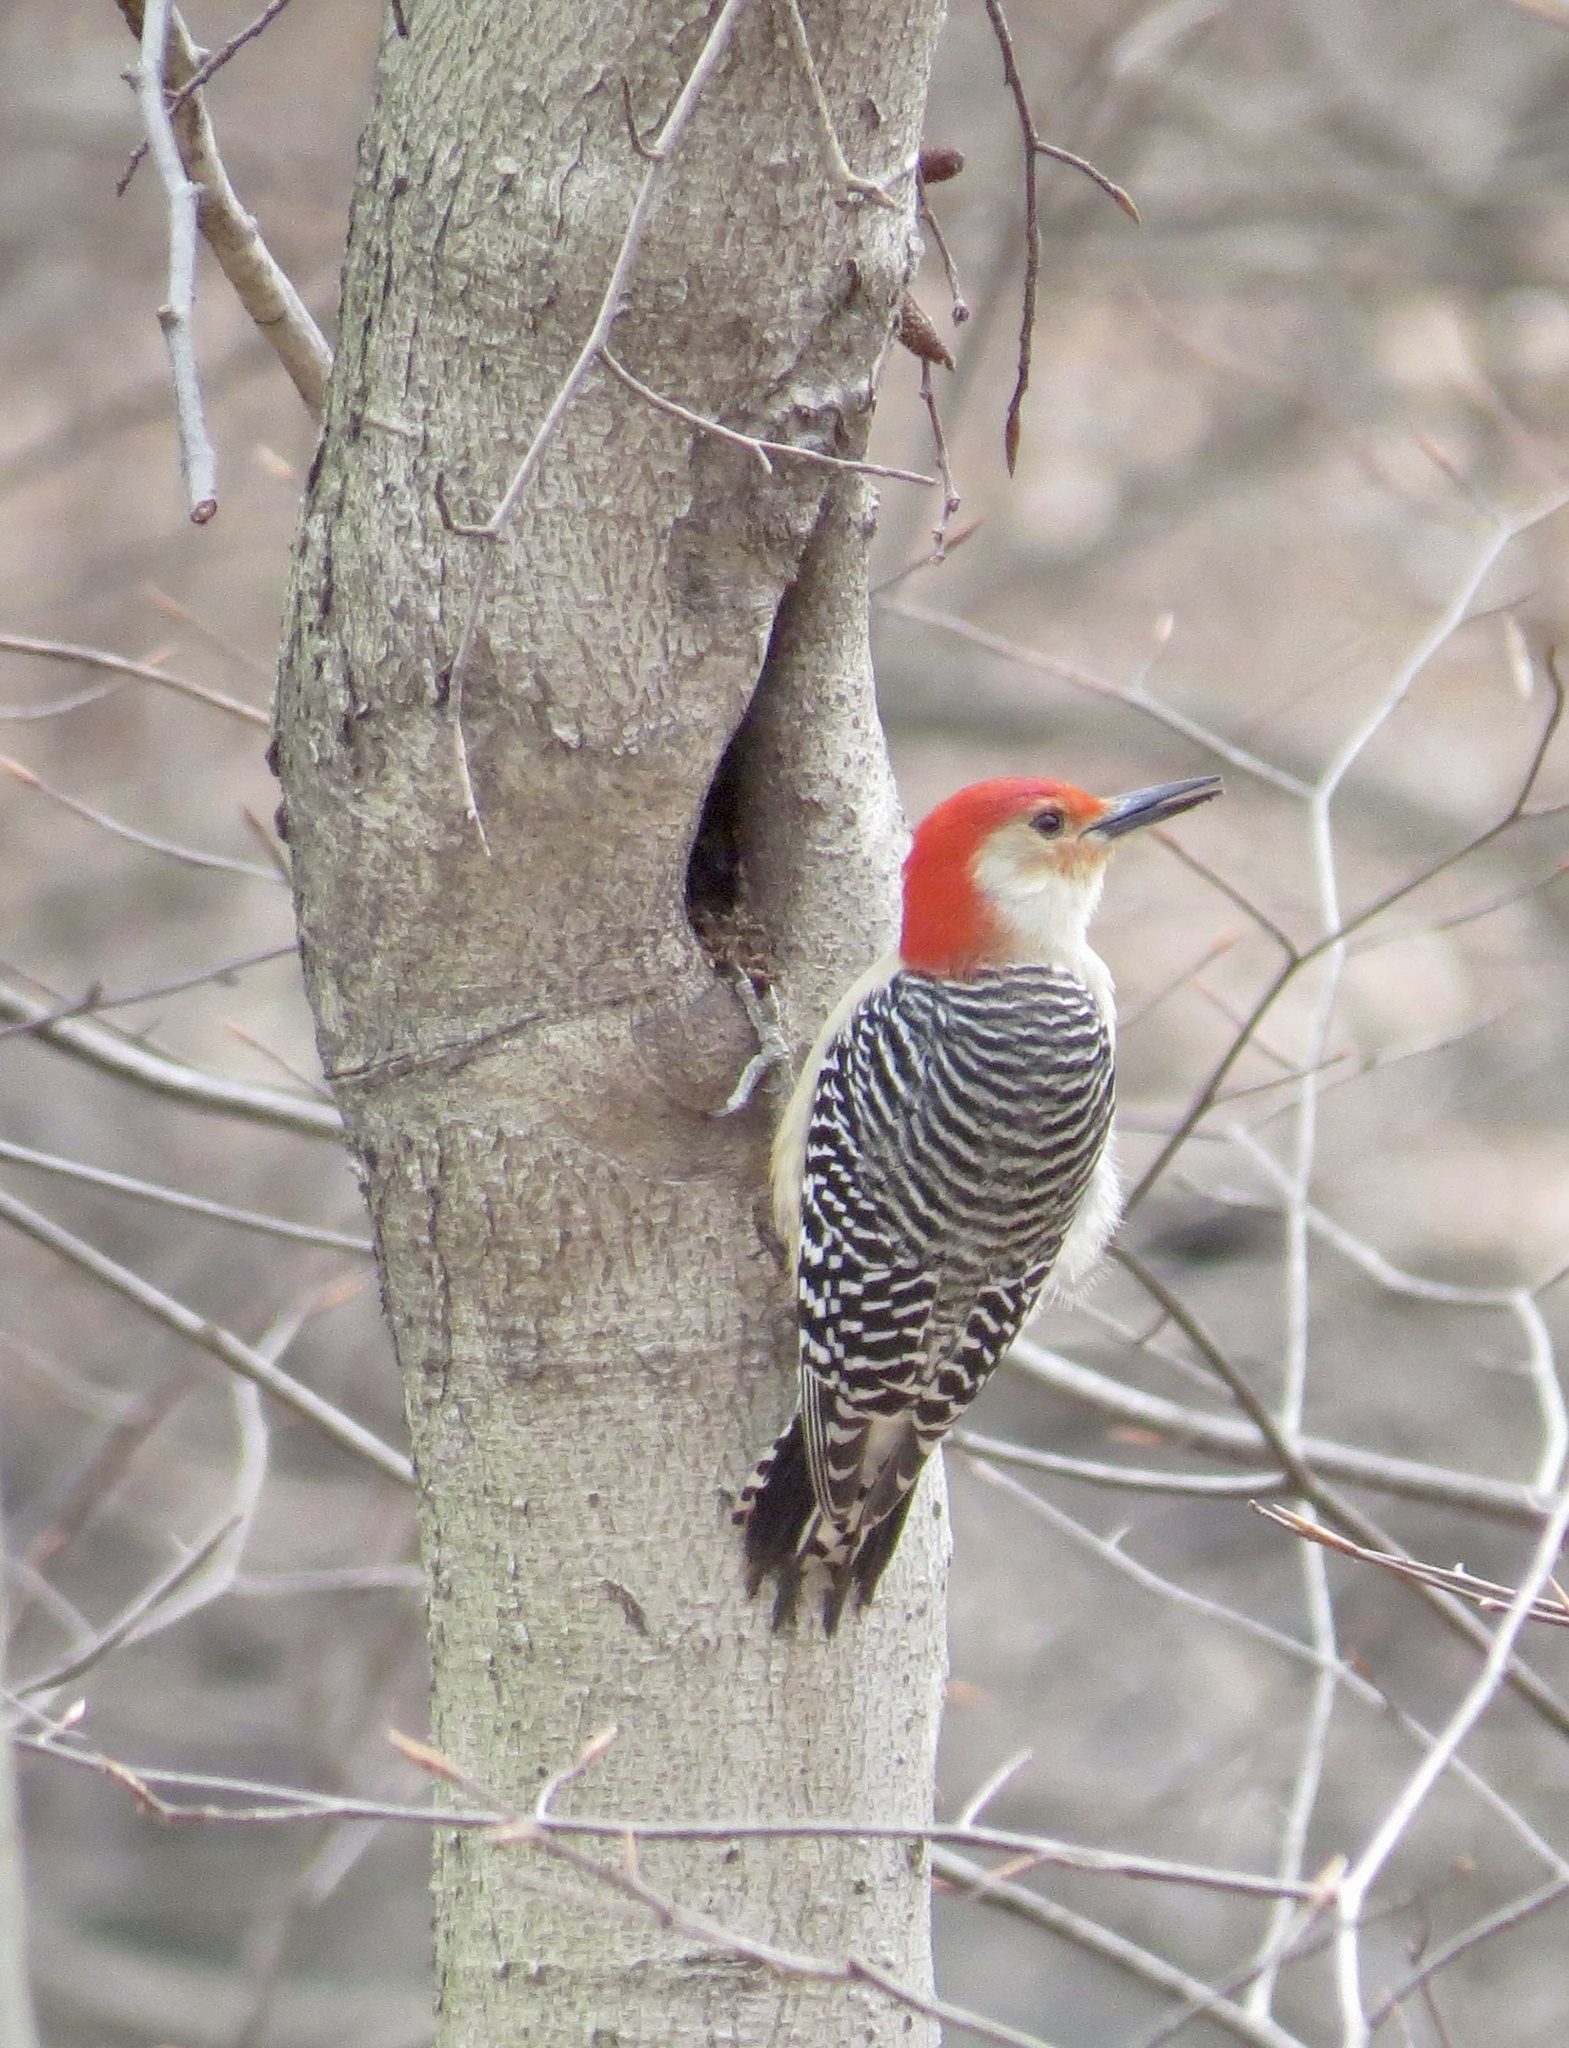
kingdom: Animalia
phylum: Chordata
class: Aves
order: Piciformes
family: Picidae
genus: Melanerpes
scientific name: Melanerpes carolinus
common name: Red-bellied woodpecker
